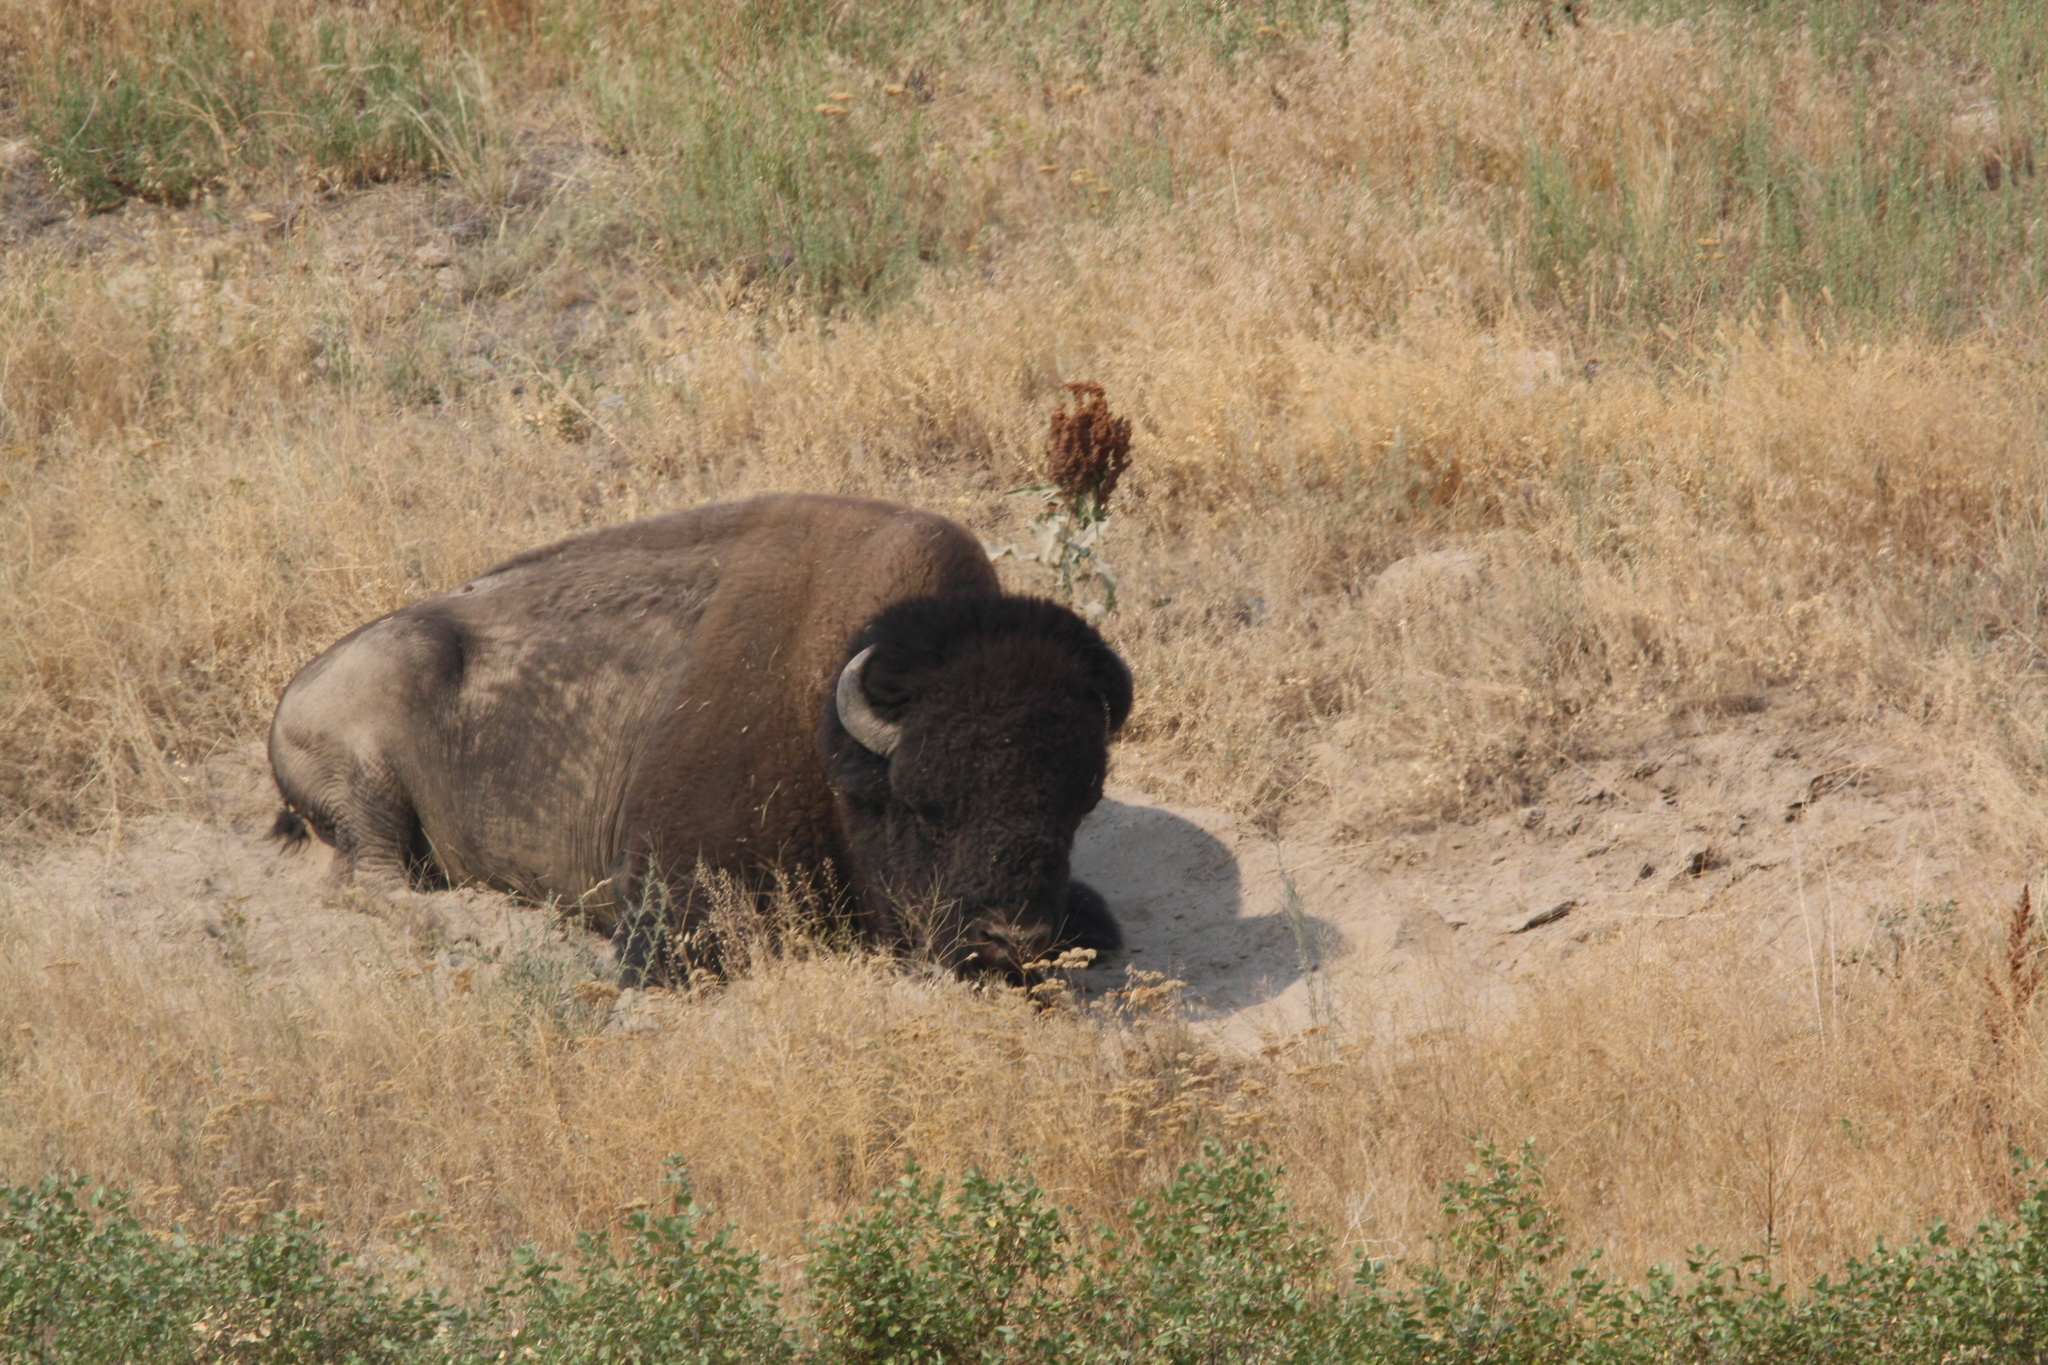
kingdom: Animalia
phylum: Chordata
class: Mammalia
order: Artiodactyla
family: Bovidae
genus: Bison
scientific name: Bison bison
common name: American bison
